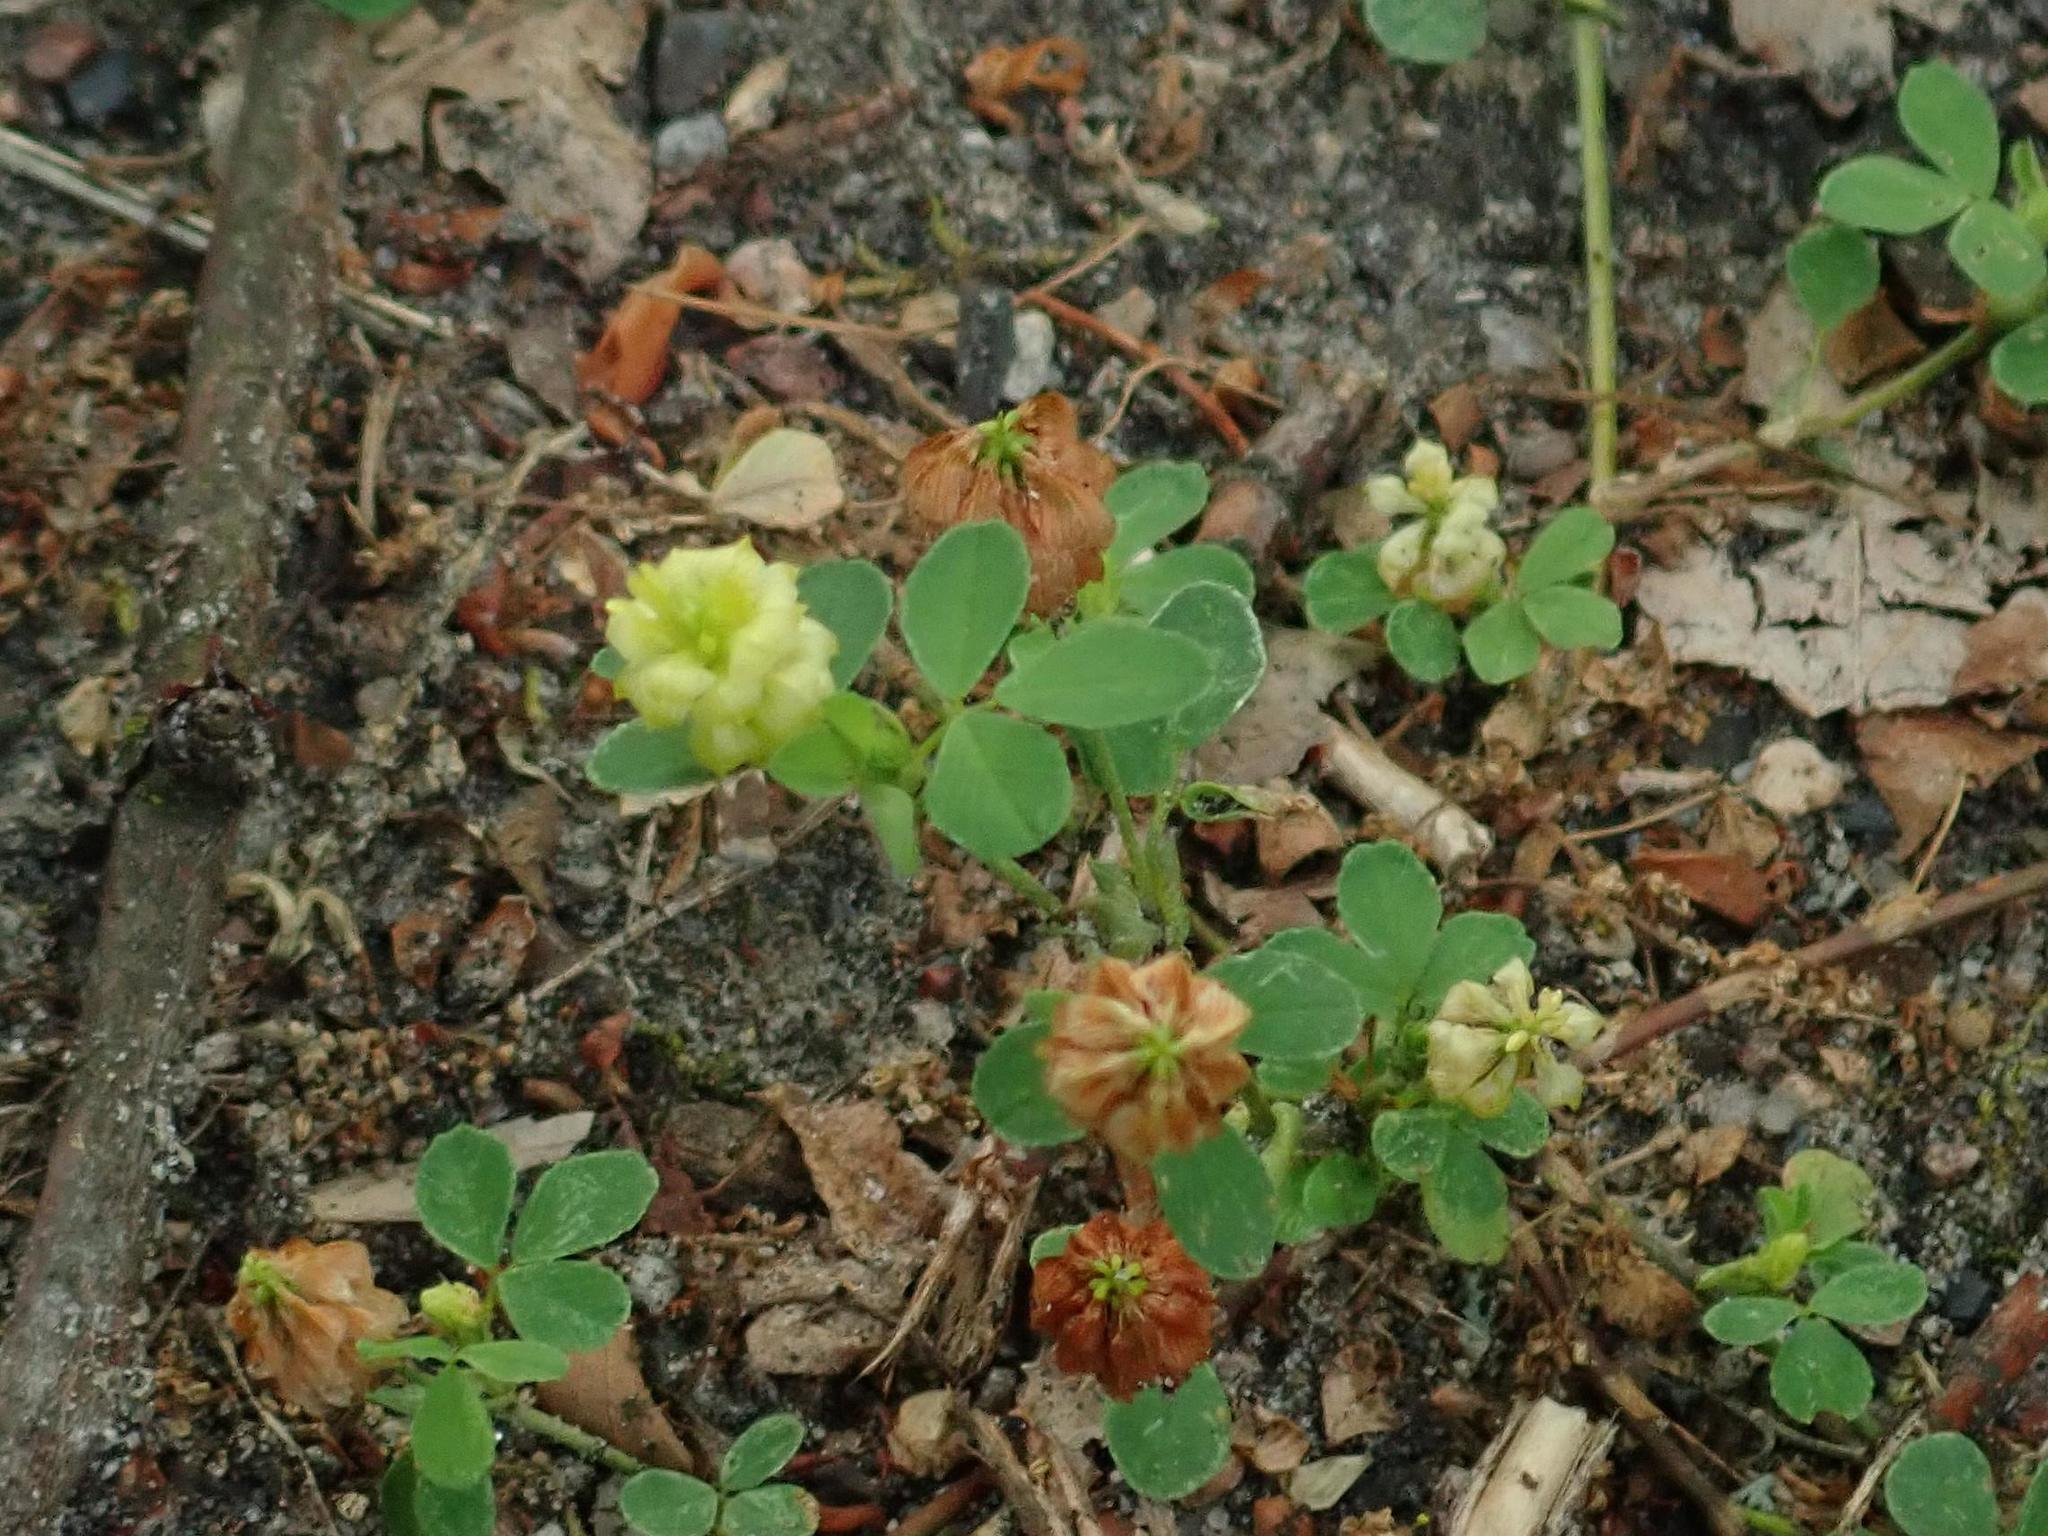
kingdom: Plantae
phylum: Tracheophyta
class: Magnoliopsida
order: Fabales
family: Fabaceae
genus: Trifolium
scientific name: Trifolium campestre
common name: Field clover
